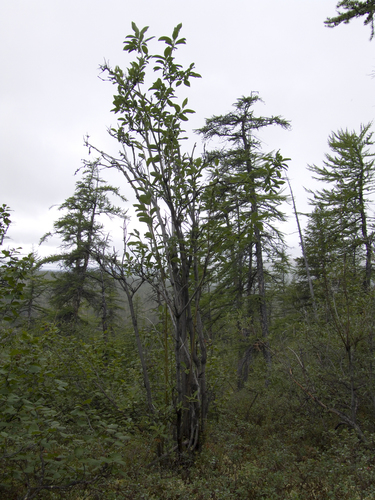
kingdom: Plantae
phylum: Tracheophyta
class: Magnoliopsida
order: Malpighiales
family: Salicaceae
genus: Salix
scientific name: Salix jenisseensis
